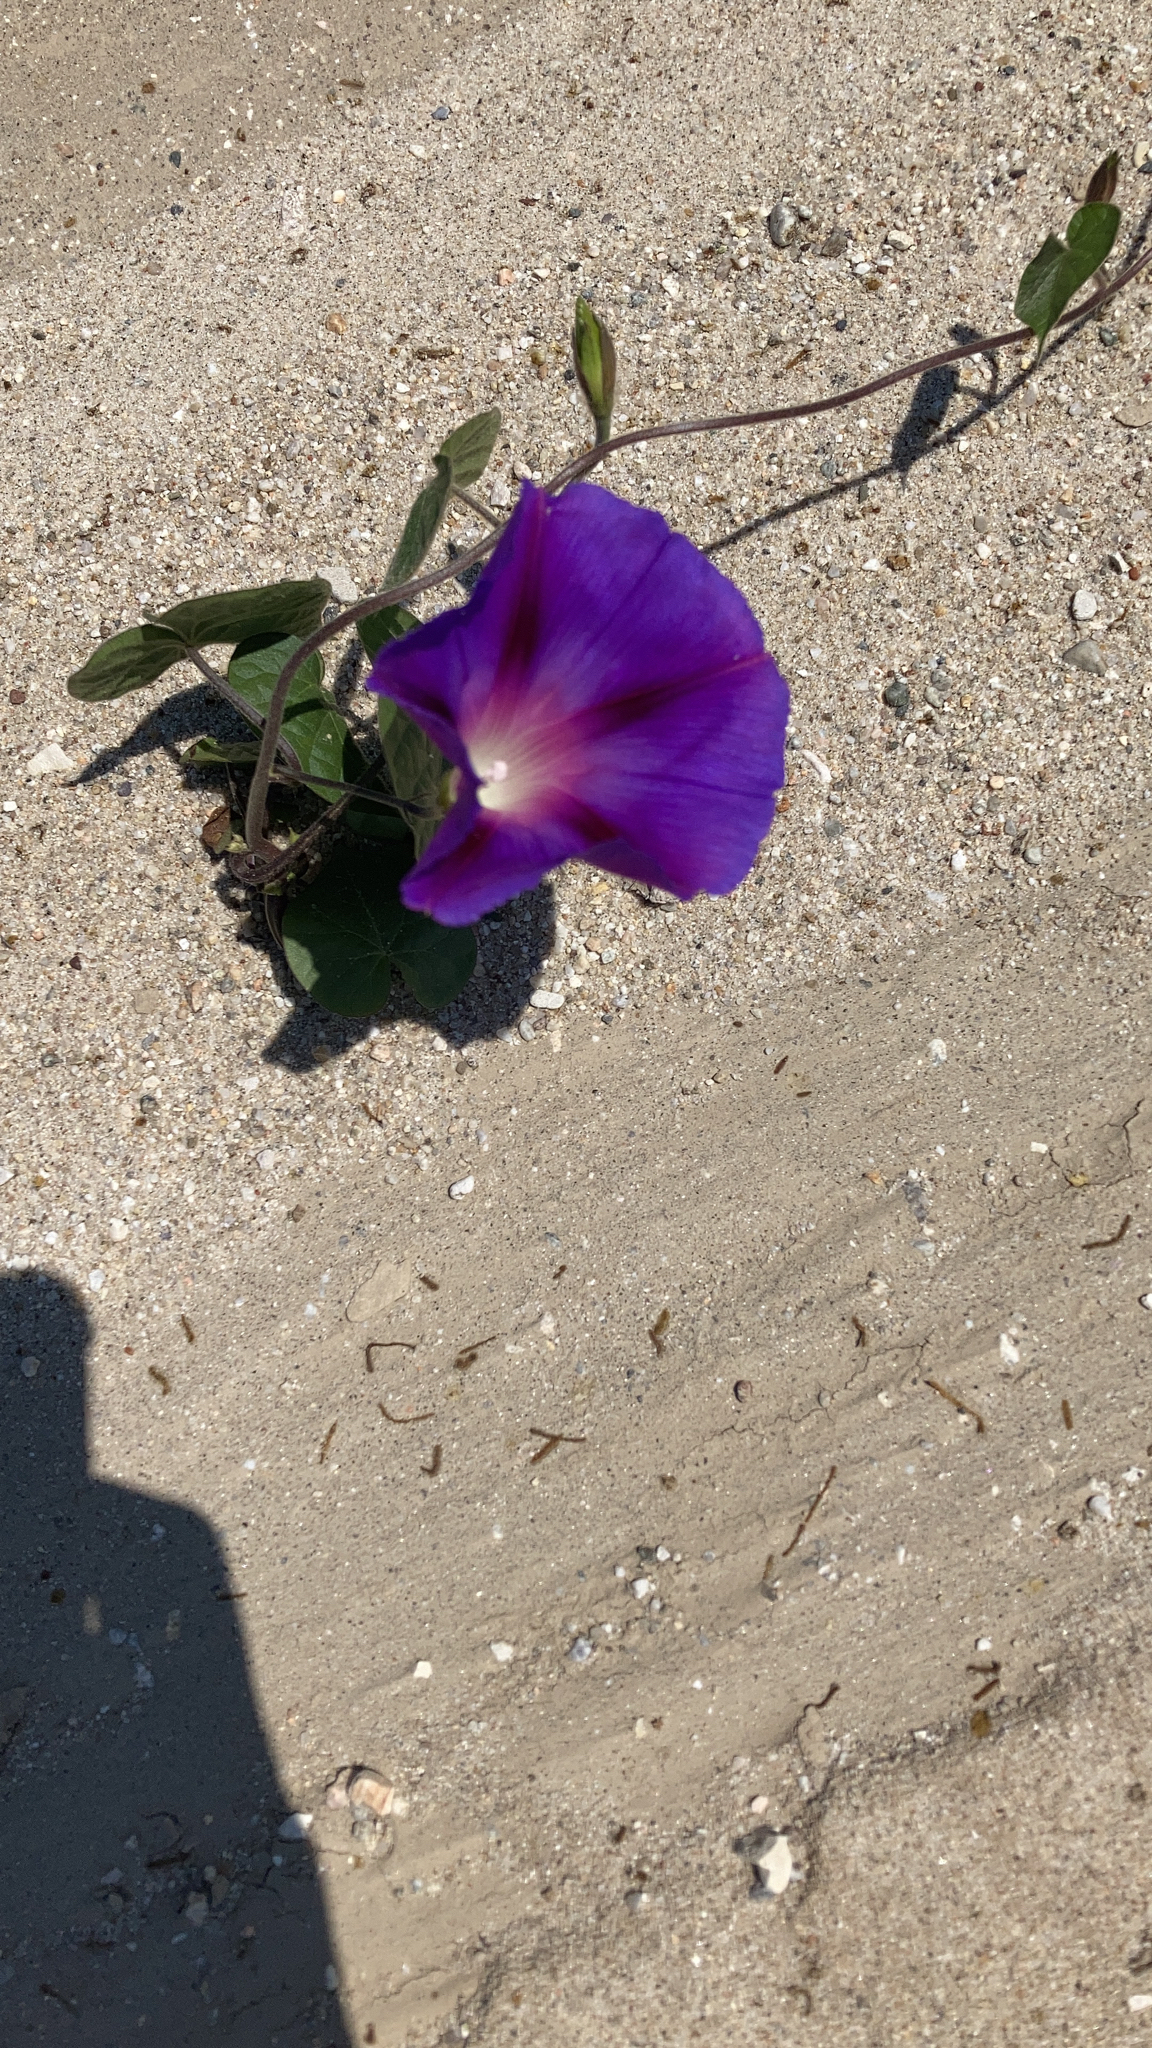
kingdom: Plantae
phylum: Tracheophyta
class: Magnoliopsida
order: Solanales
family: Convolvulaceae
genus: Ipomoea
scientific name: Ipomoea purpurea
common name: Common morning-glory
